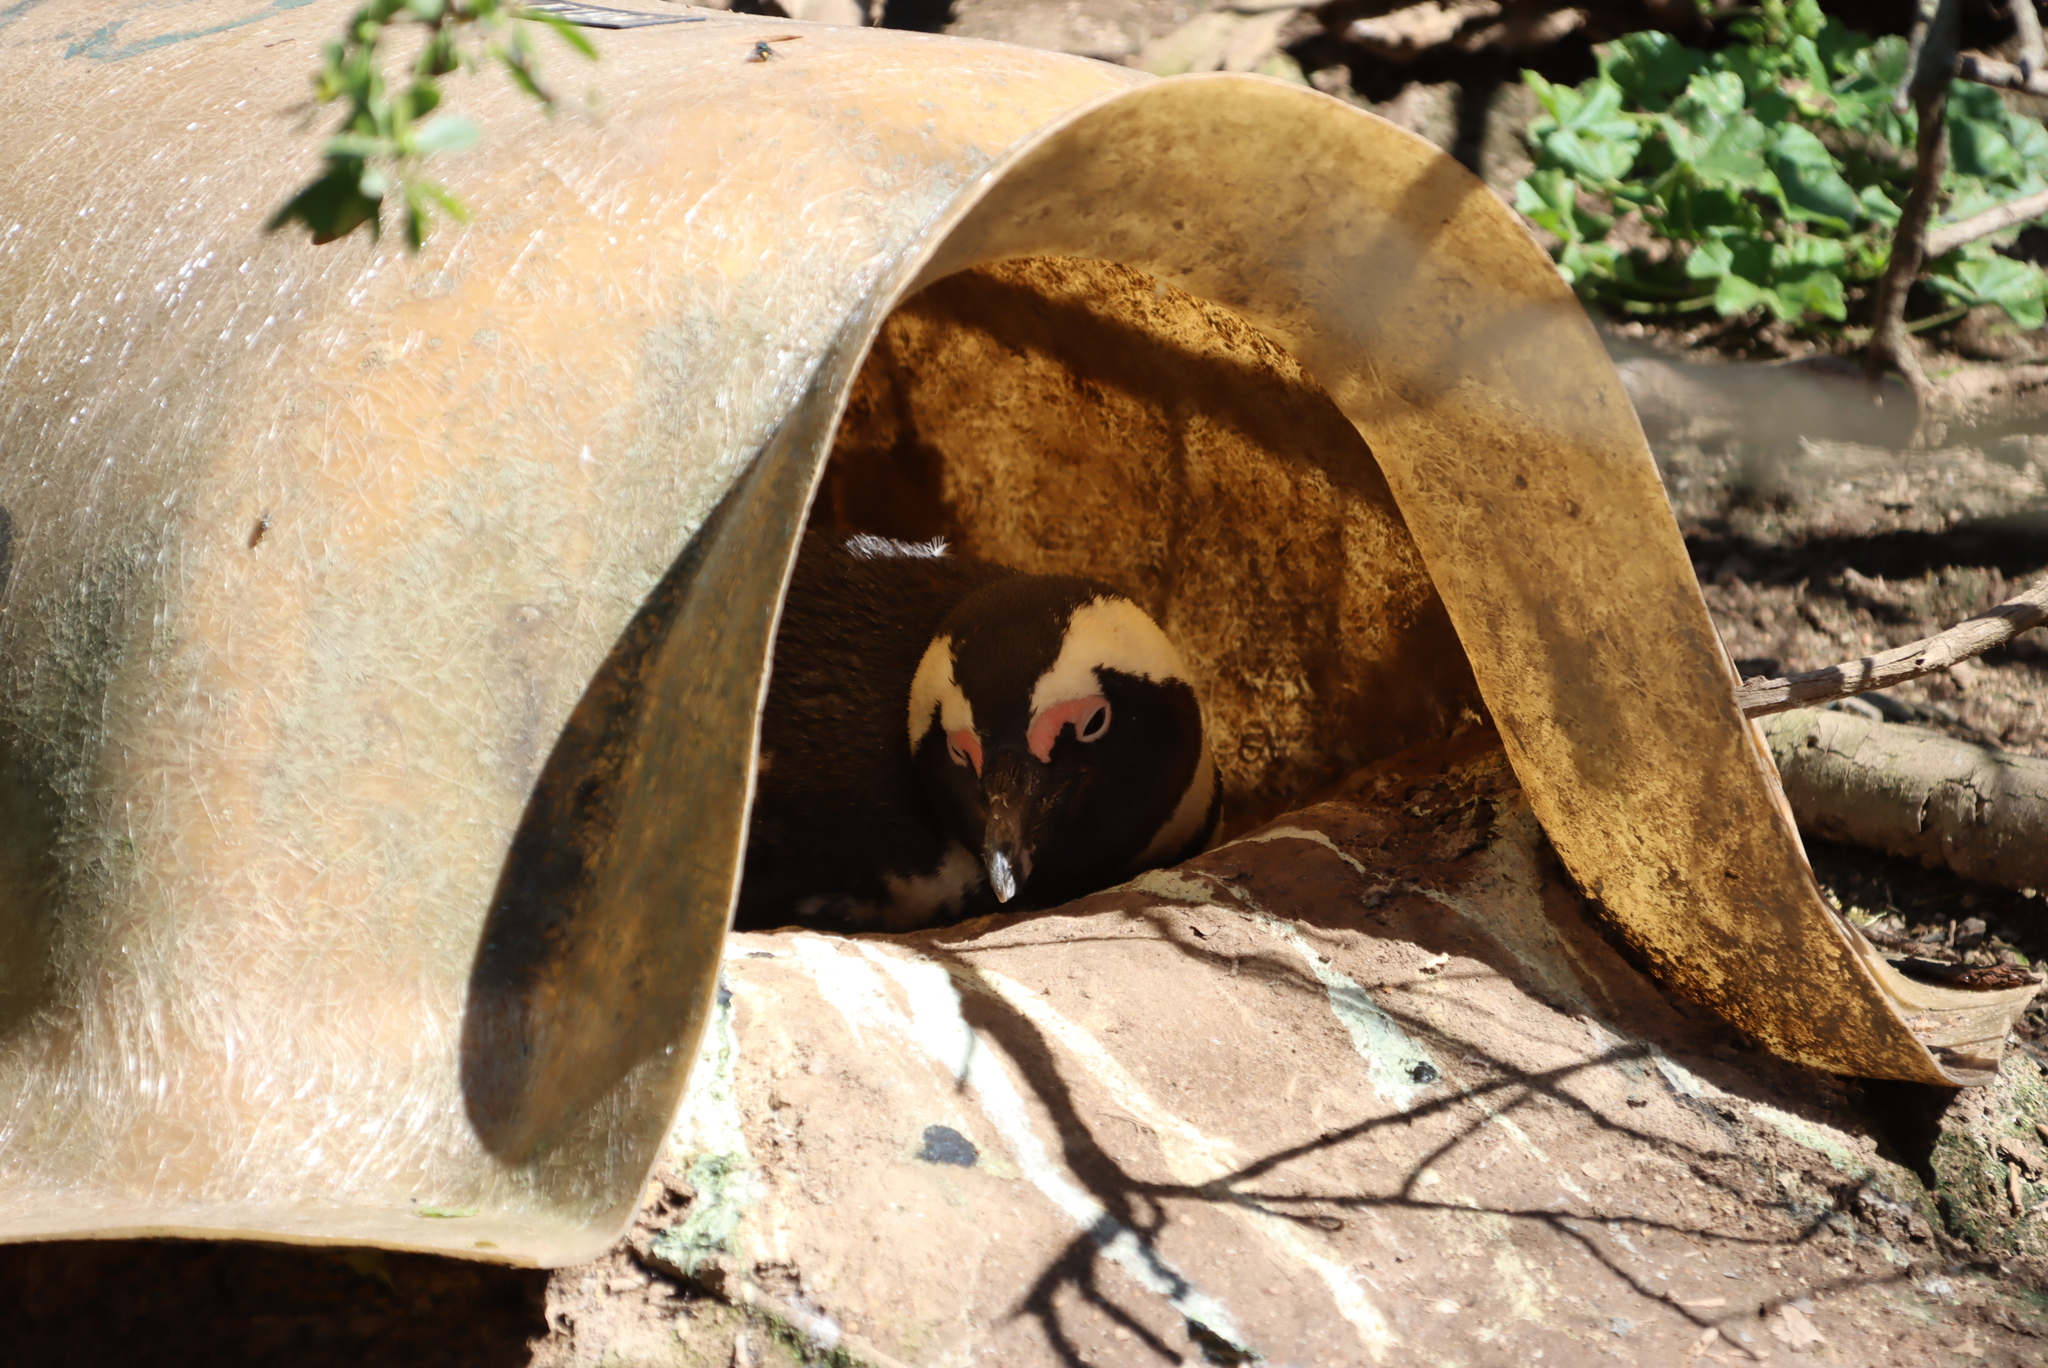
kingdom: Animalia
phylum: Chordata
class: Aves
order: Sphenisciformes
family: Spheniscidae
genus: Spheniscus
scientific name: Spheniscus demersus
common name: African penguin
